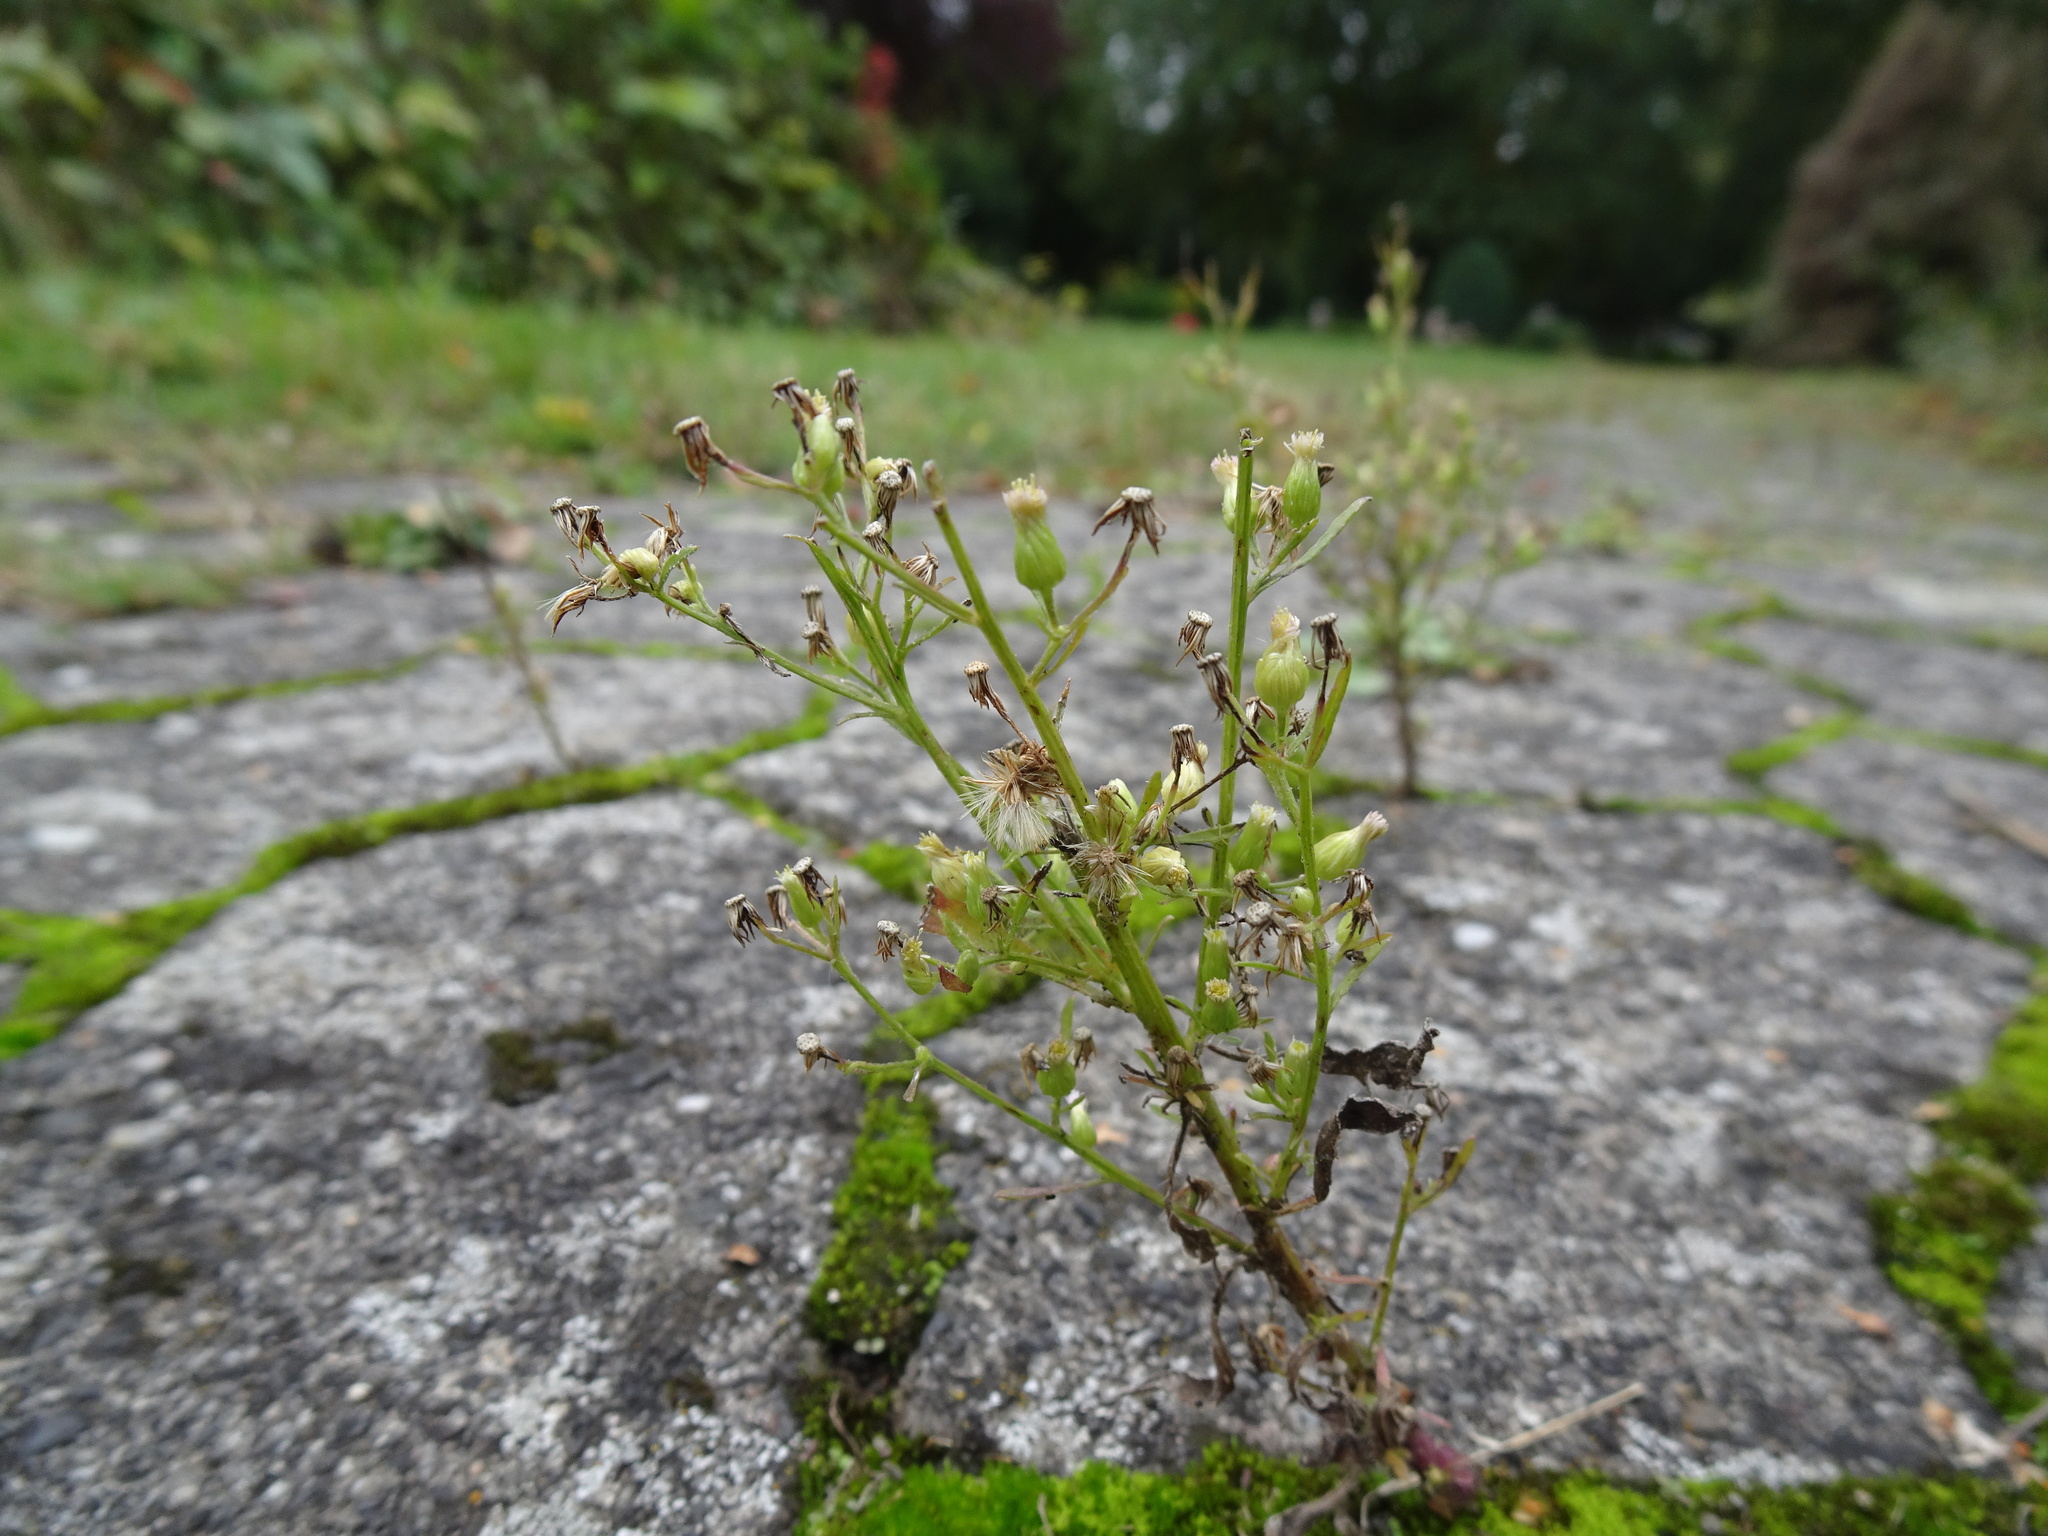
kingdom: Plantae
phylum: Tracheophyta
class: Magnoliopsida
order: Asterales
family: Asteraceae
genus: Erigeron
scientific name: Erigeron canadensis
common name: Canadian fleabane
